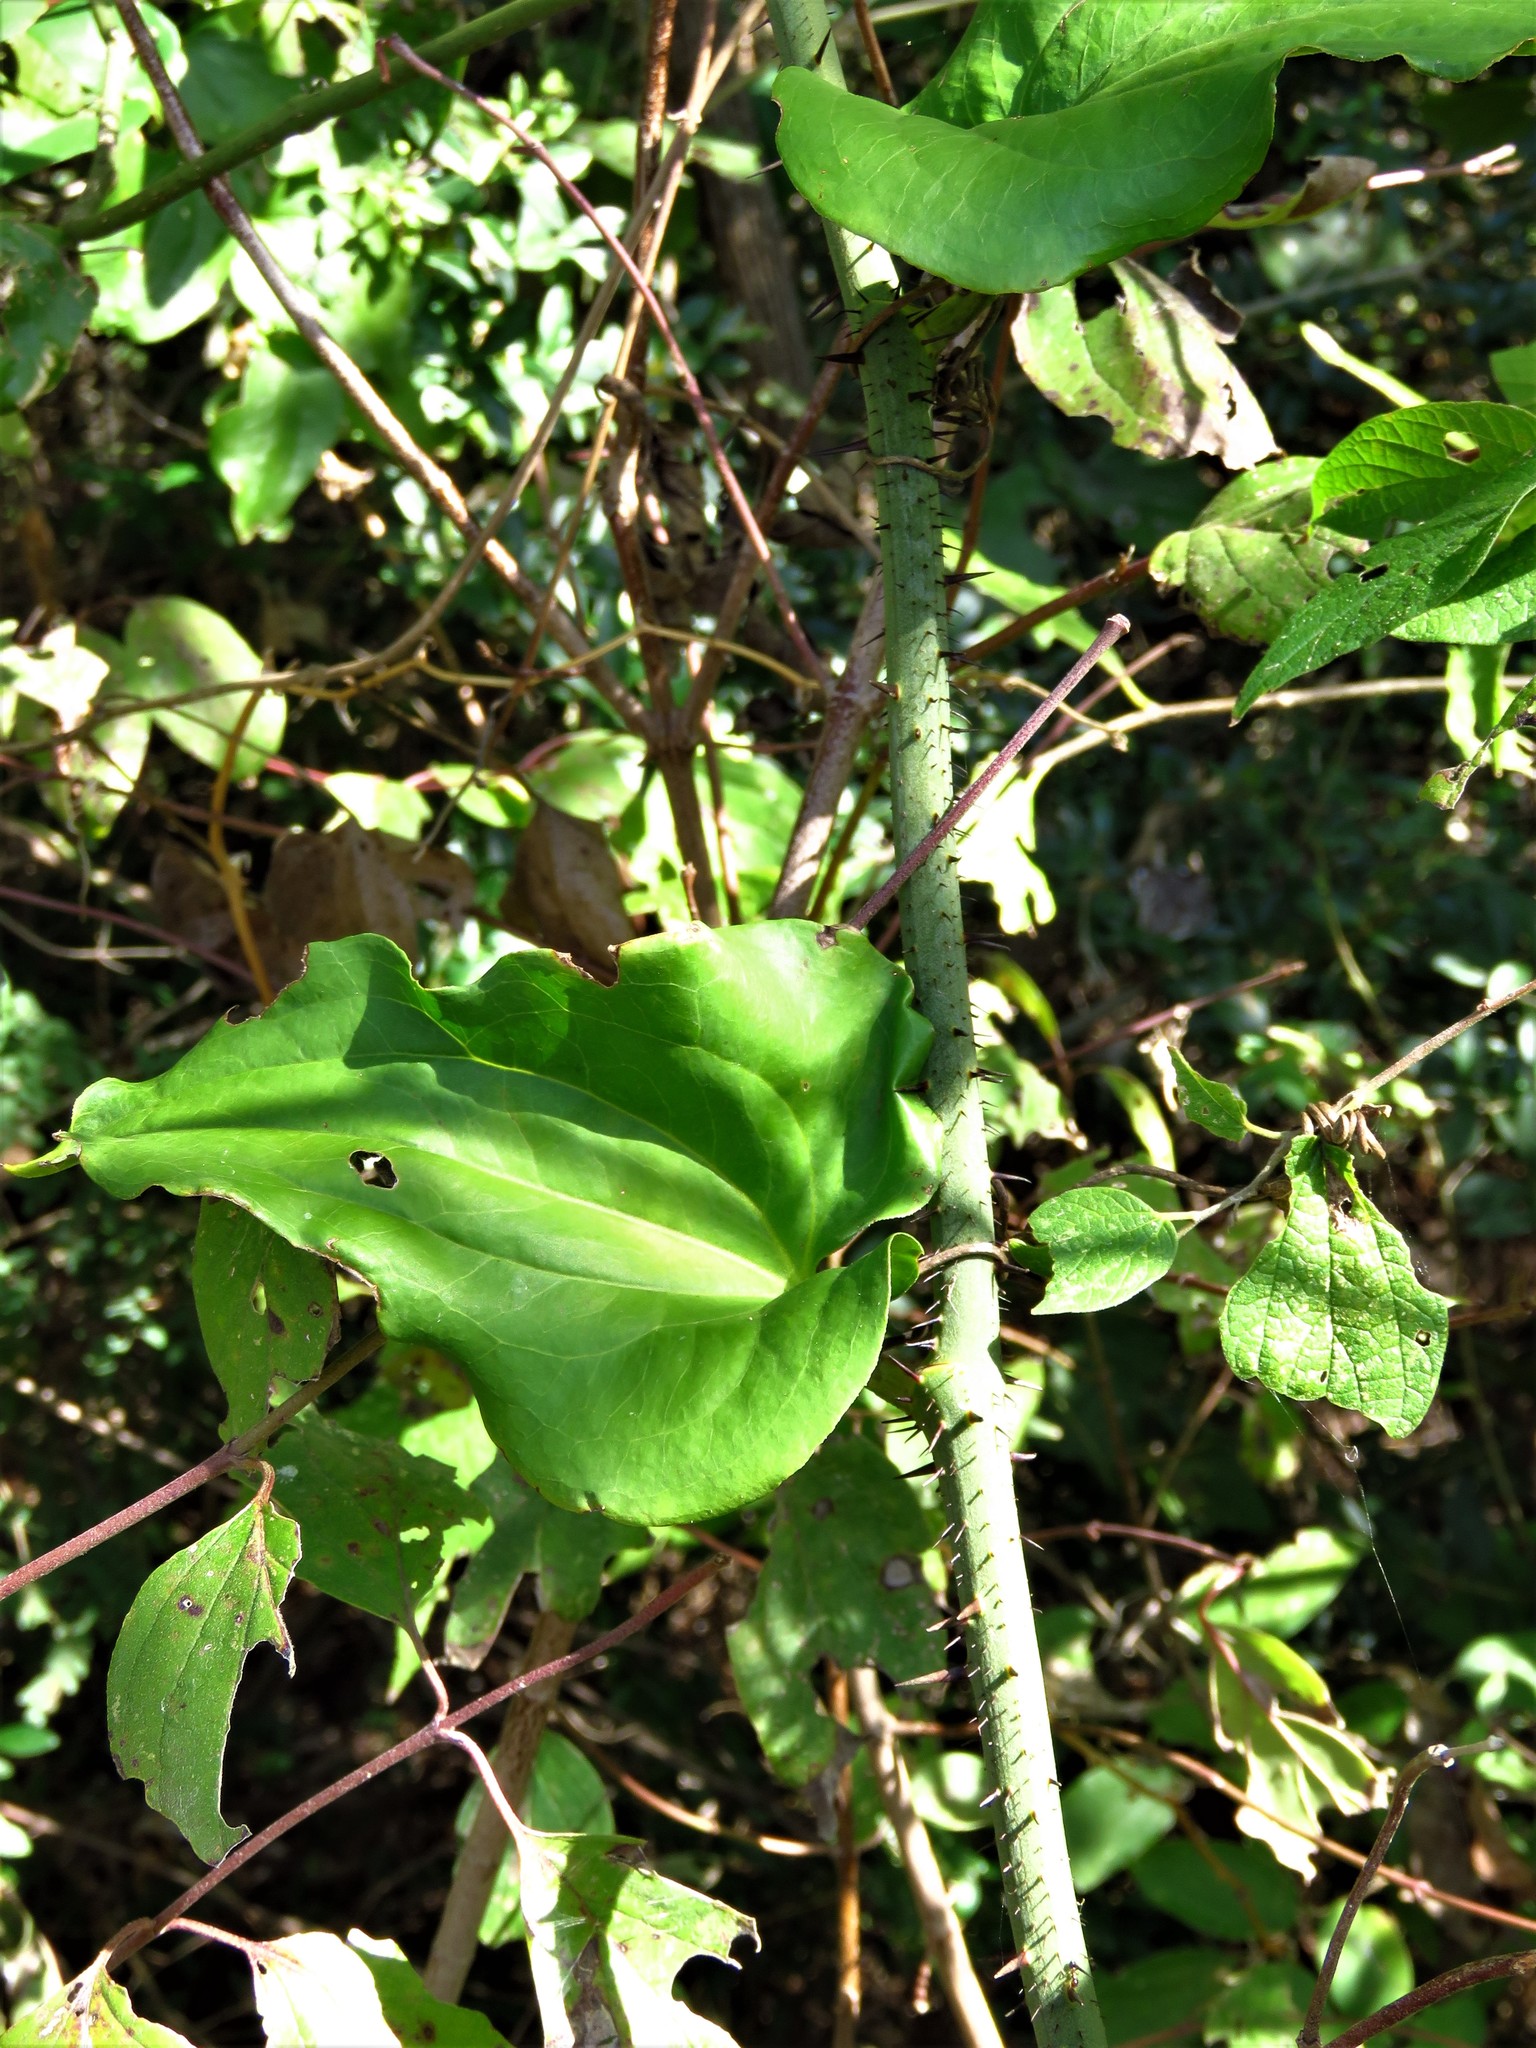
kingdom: Plantae
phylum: Tracheophyta
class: Liliopsida
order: Liliales
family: Smilacaceae
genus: Smilax
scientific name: Smilax tamnoides
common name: Hellfetter
